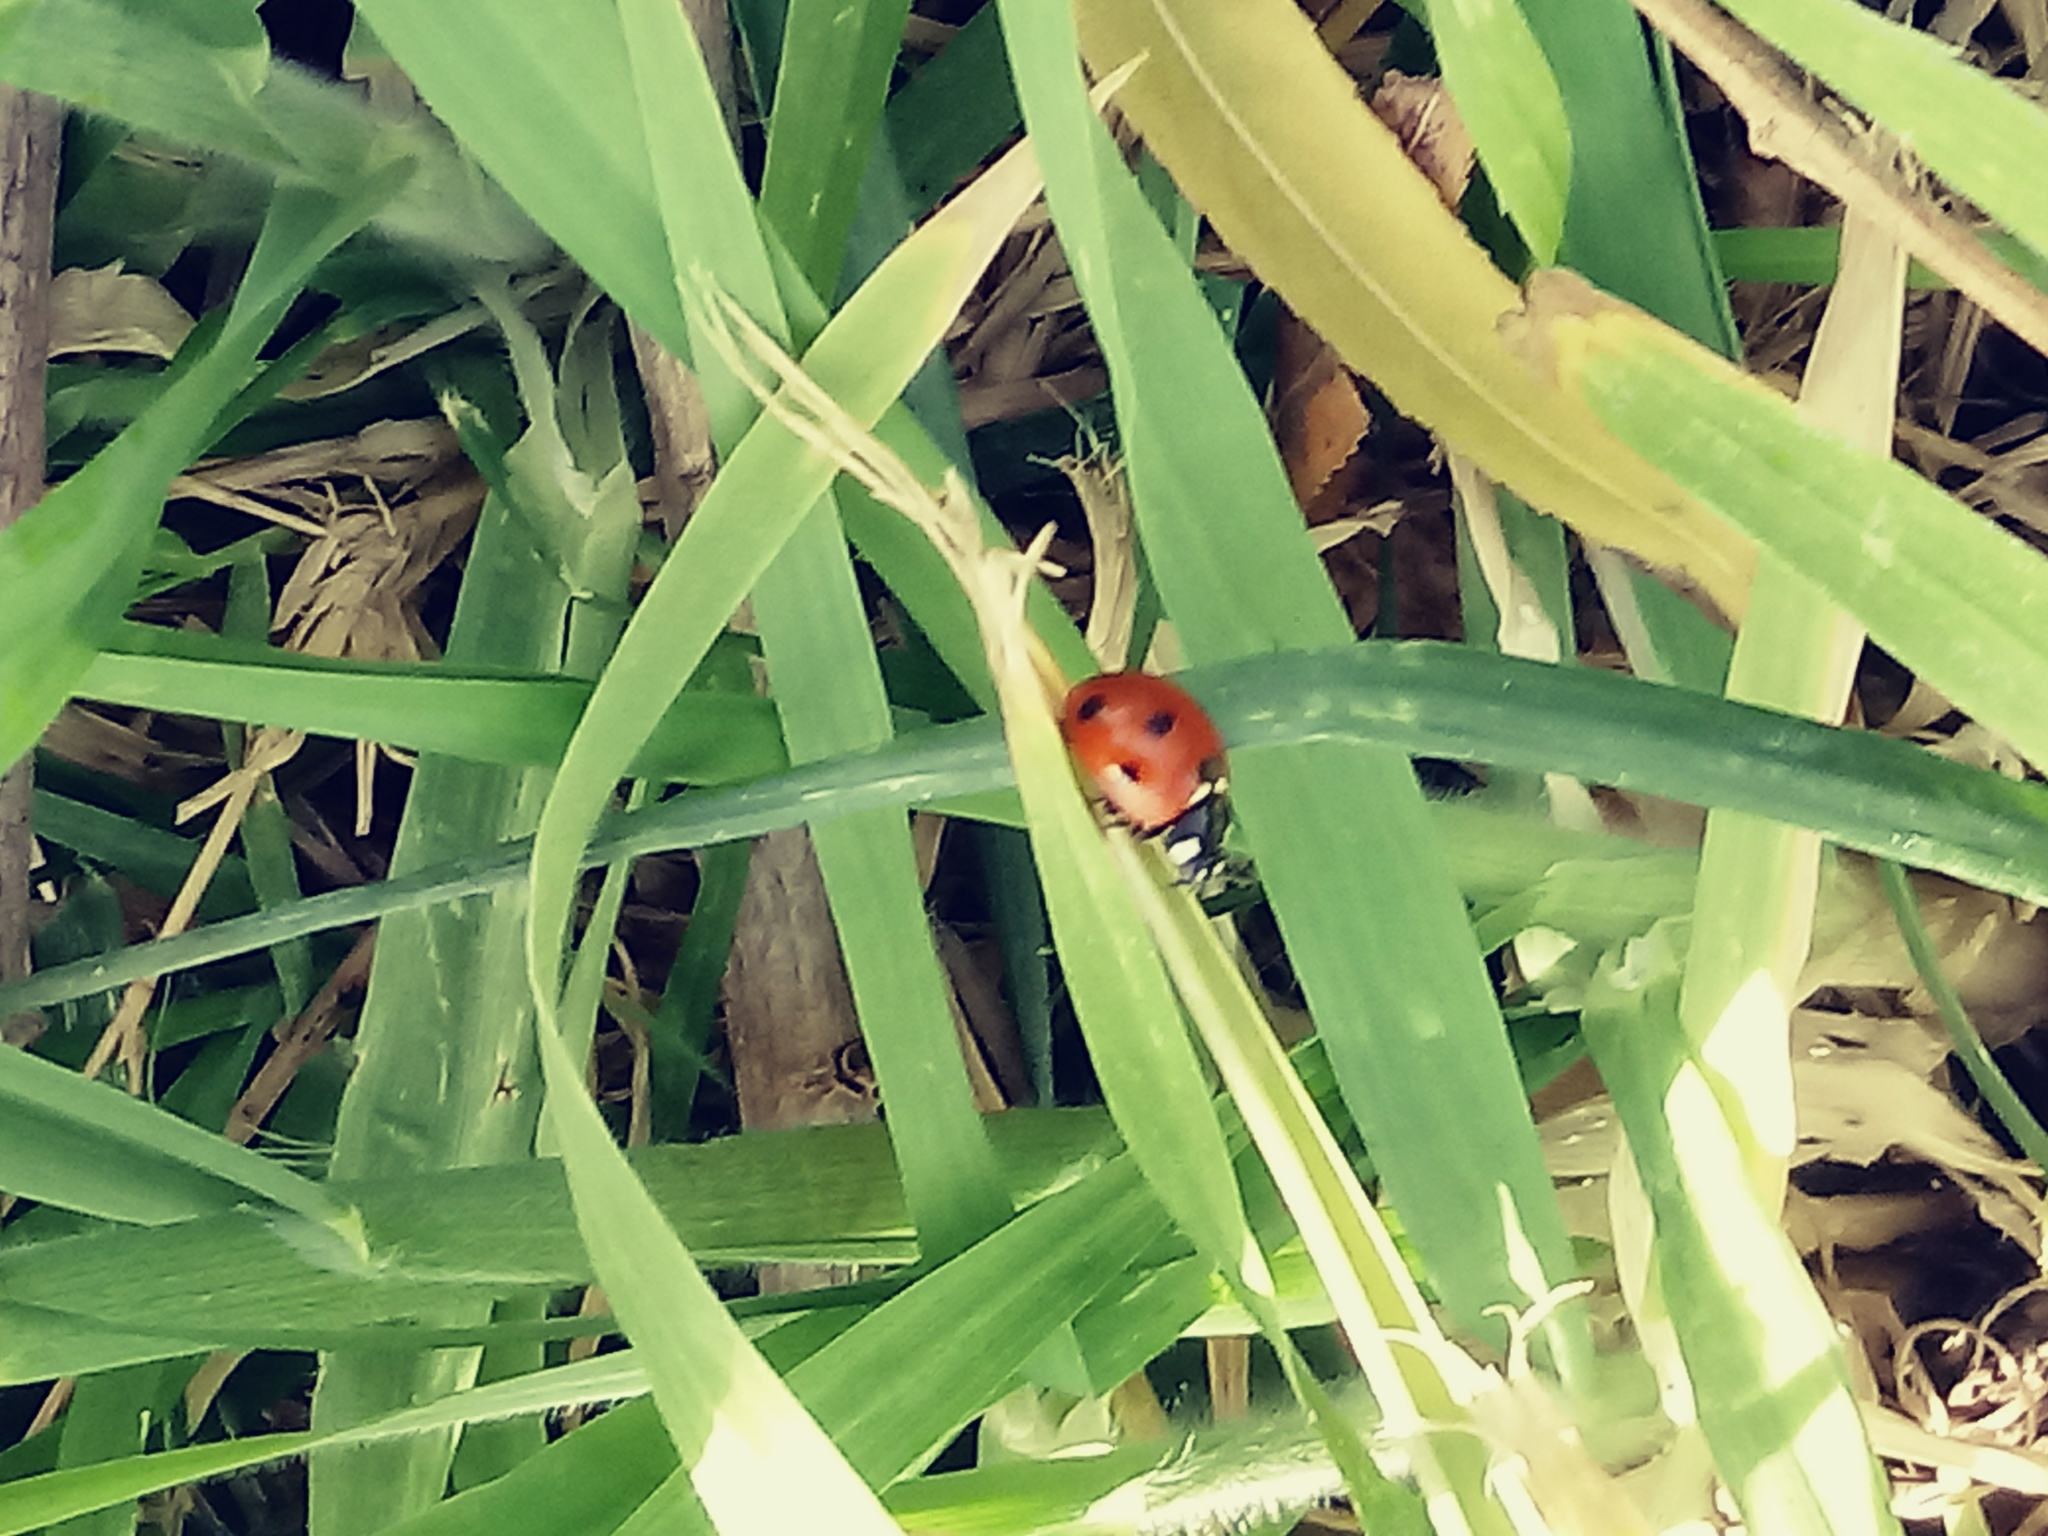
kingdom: Animalia
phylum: Arthropoda
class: Insecta
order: Coleoptera
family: Coccinellidae
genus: Coccinella
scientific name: Coccinella septempunctata
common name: Sevenspotted lady beetle
